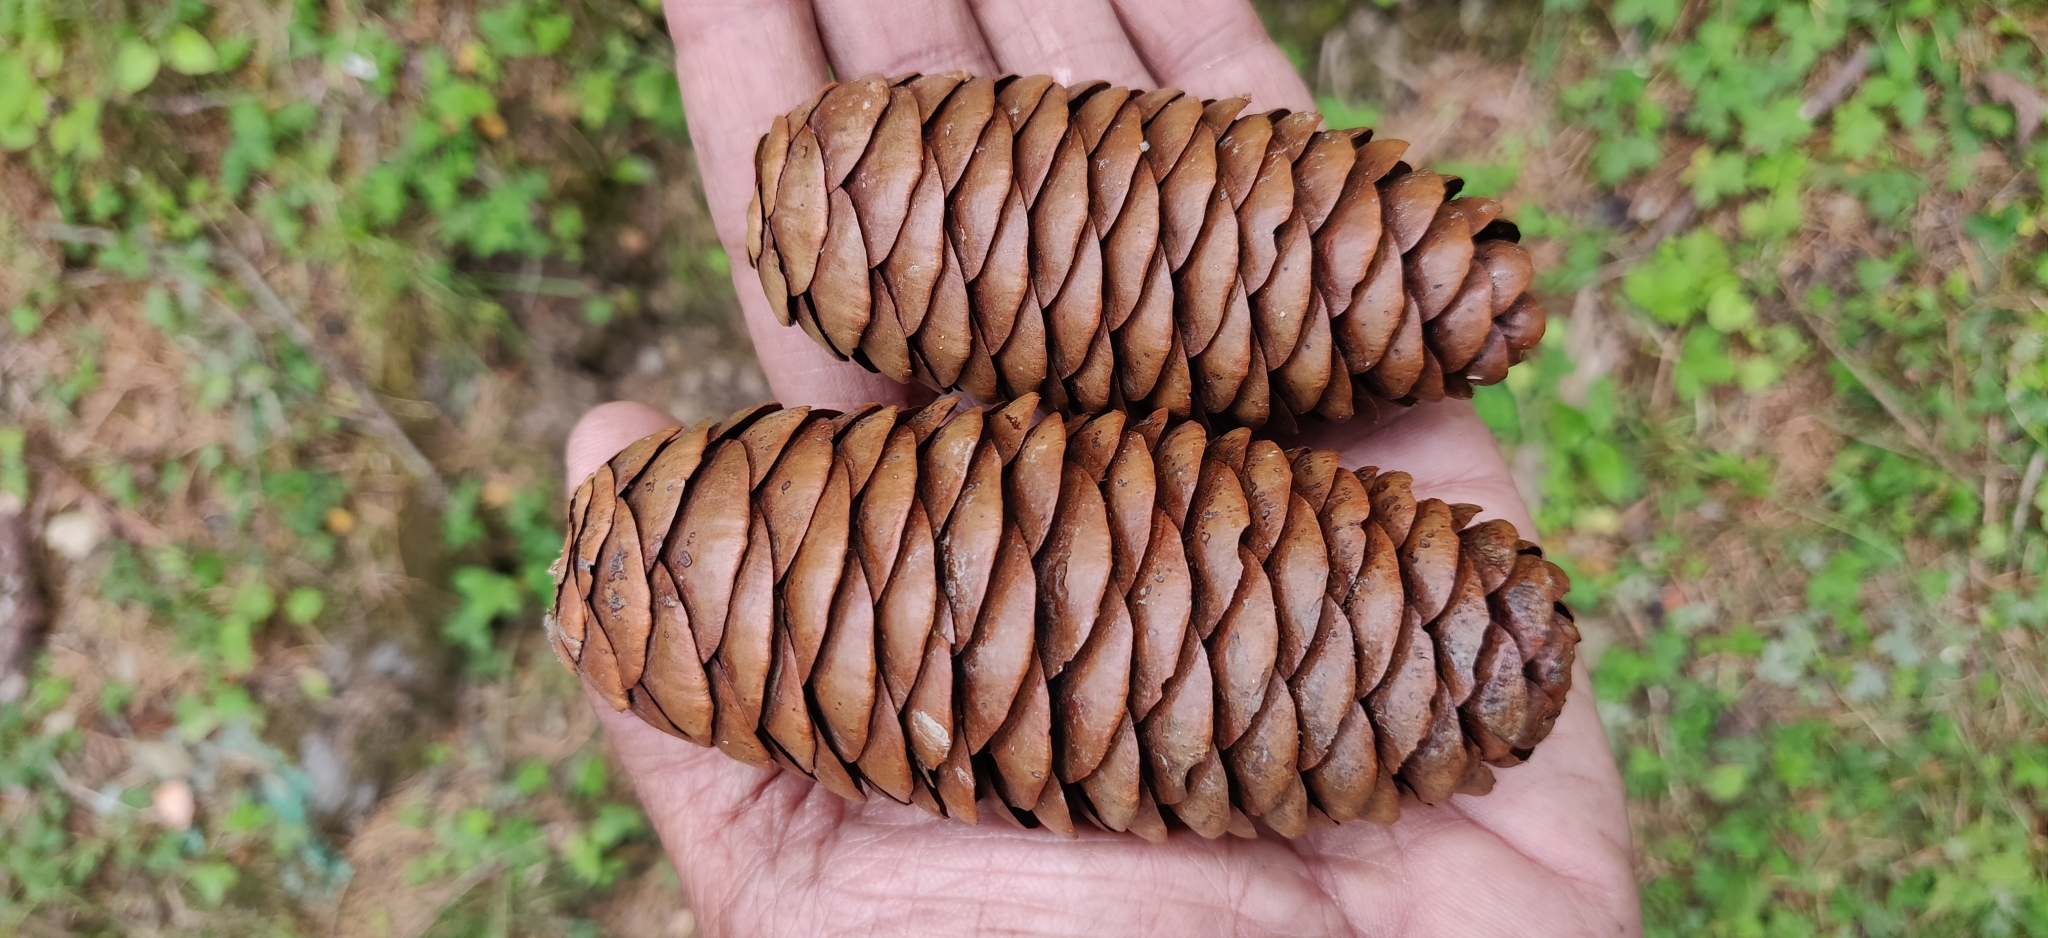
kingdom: Plantae
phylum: Tracheophyta
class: Pinopsida
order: Pinales
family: Pinaceae
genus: Picea
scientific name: Picea smithiana
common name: Morinda spruce
